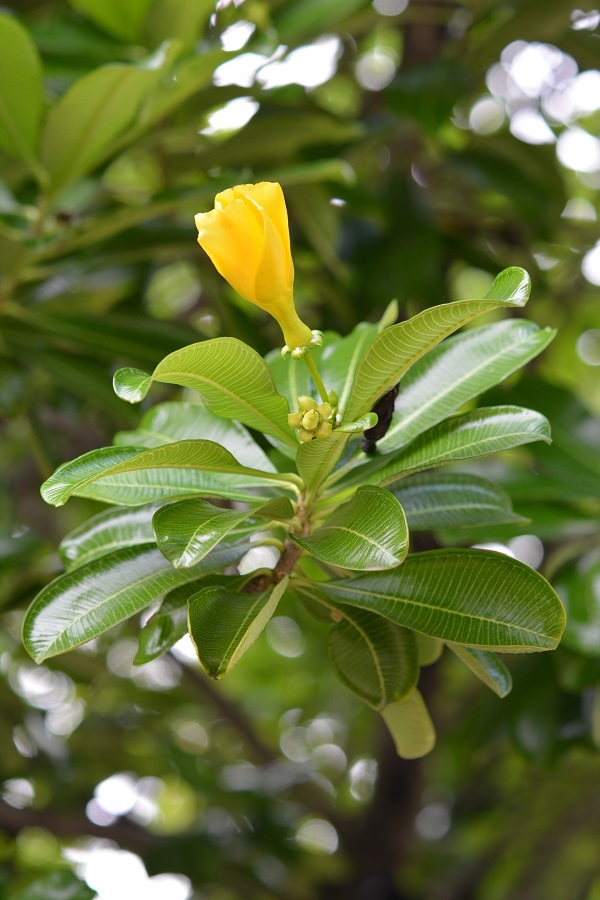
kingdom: Plantae
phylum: Tracheophyta
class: Magnoliopsida
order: Gentianales
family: Apocynaceae
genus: Cascabela
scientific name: Cascabela ovata
